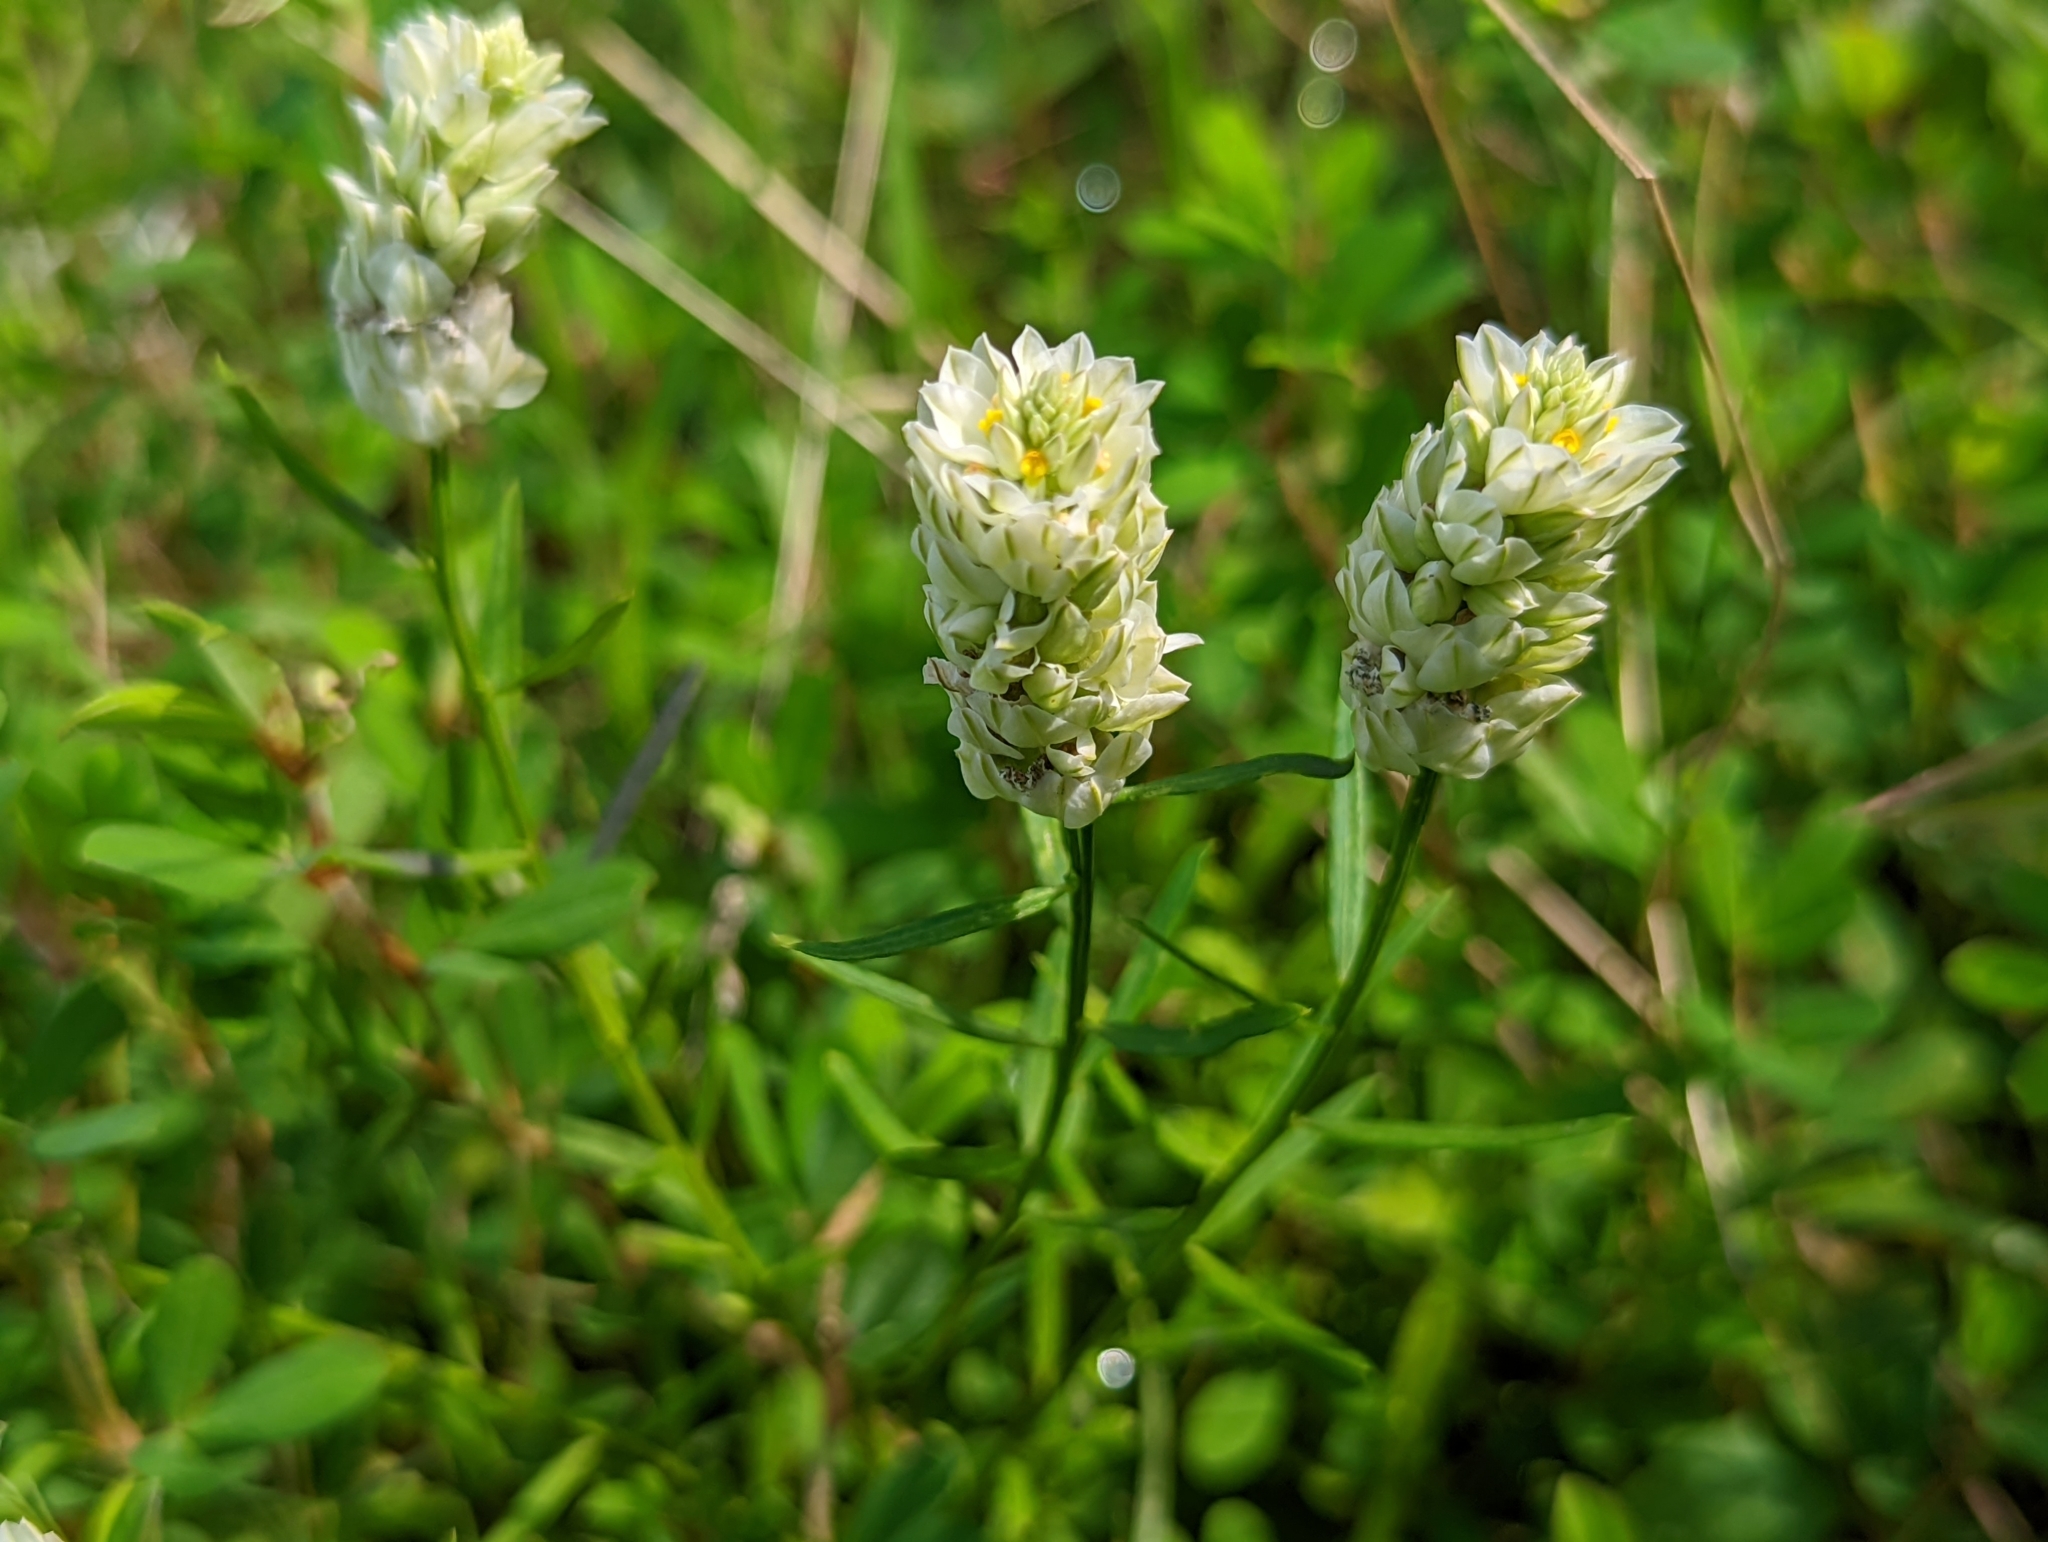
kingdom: Plantae
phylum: Tracheophyta
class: Magnoliopsida
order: Fabales
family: Polygalaceae
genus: Polygala
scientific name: Polygala sanguinea
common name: Blood milkwort
